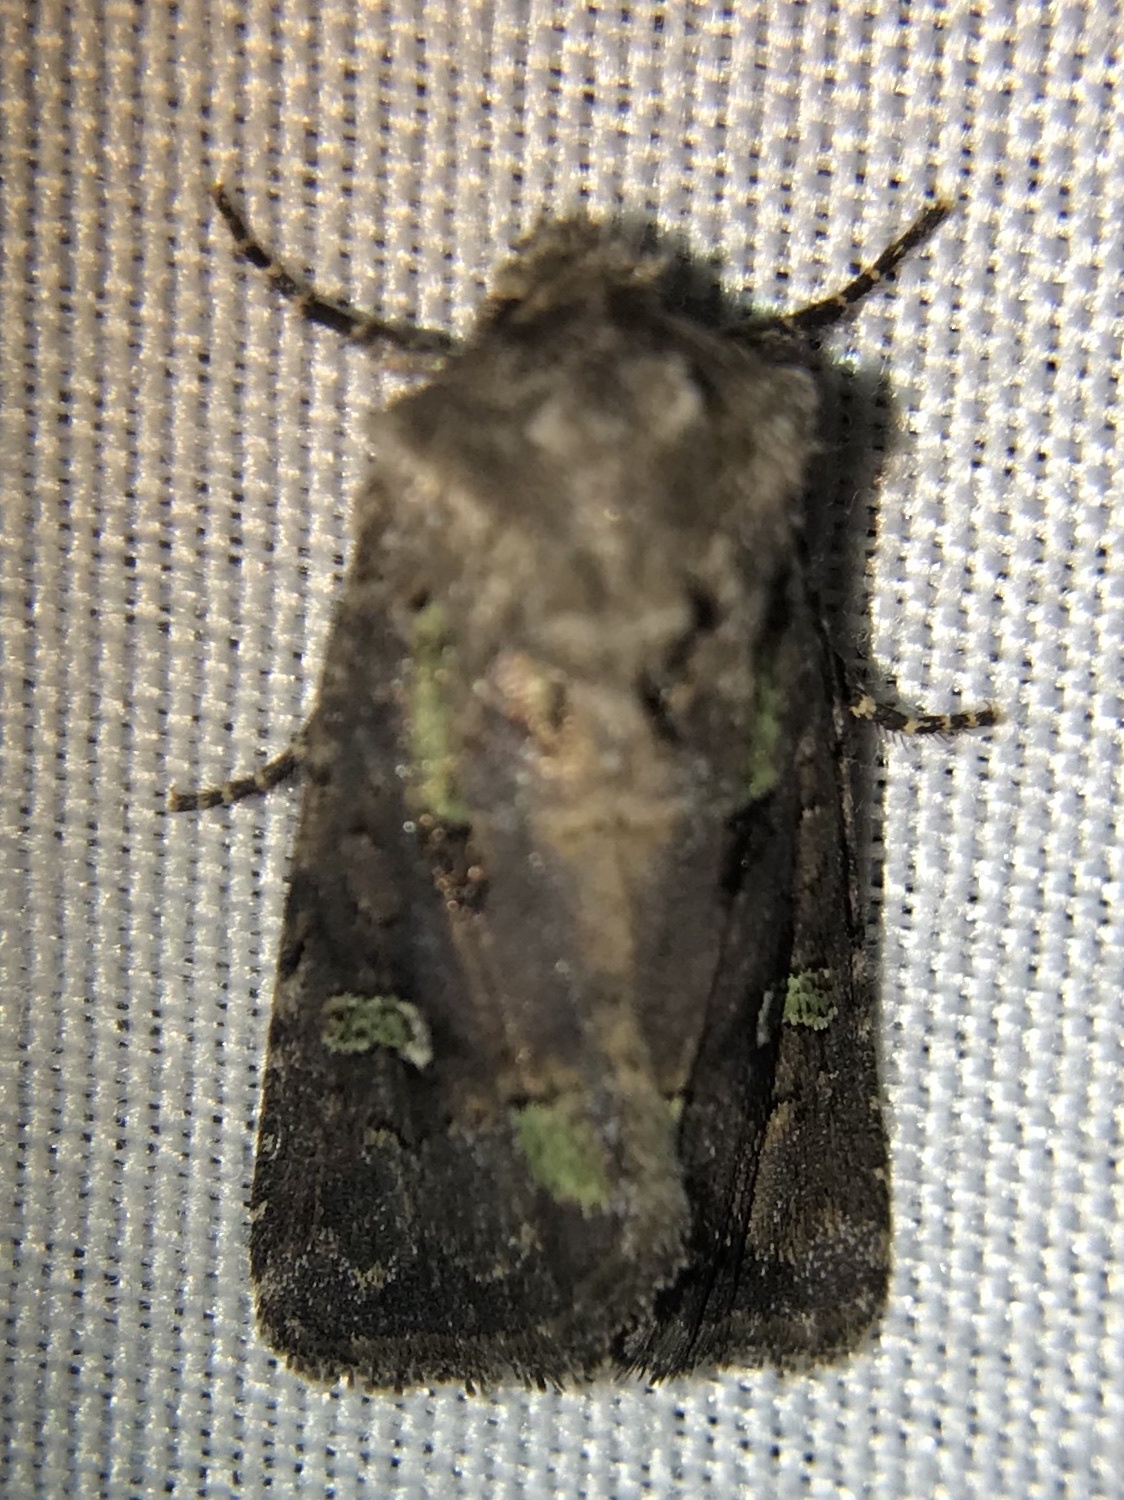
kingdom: Animalia
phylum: Arthropoda
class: Insecta
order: Lepidoptera
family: Noctuidae
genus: Lacinipolia
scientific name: Lacinipolia renigera
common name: Kidney-spotted minor
